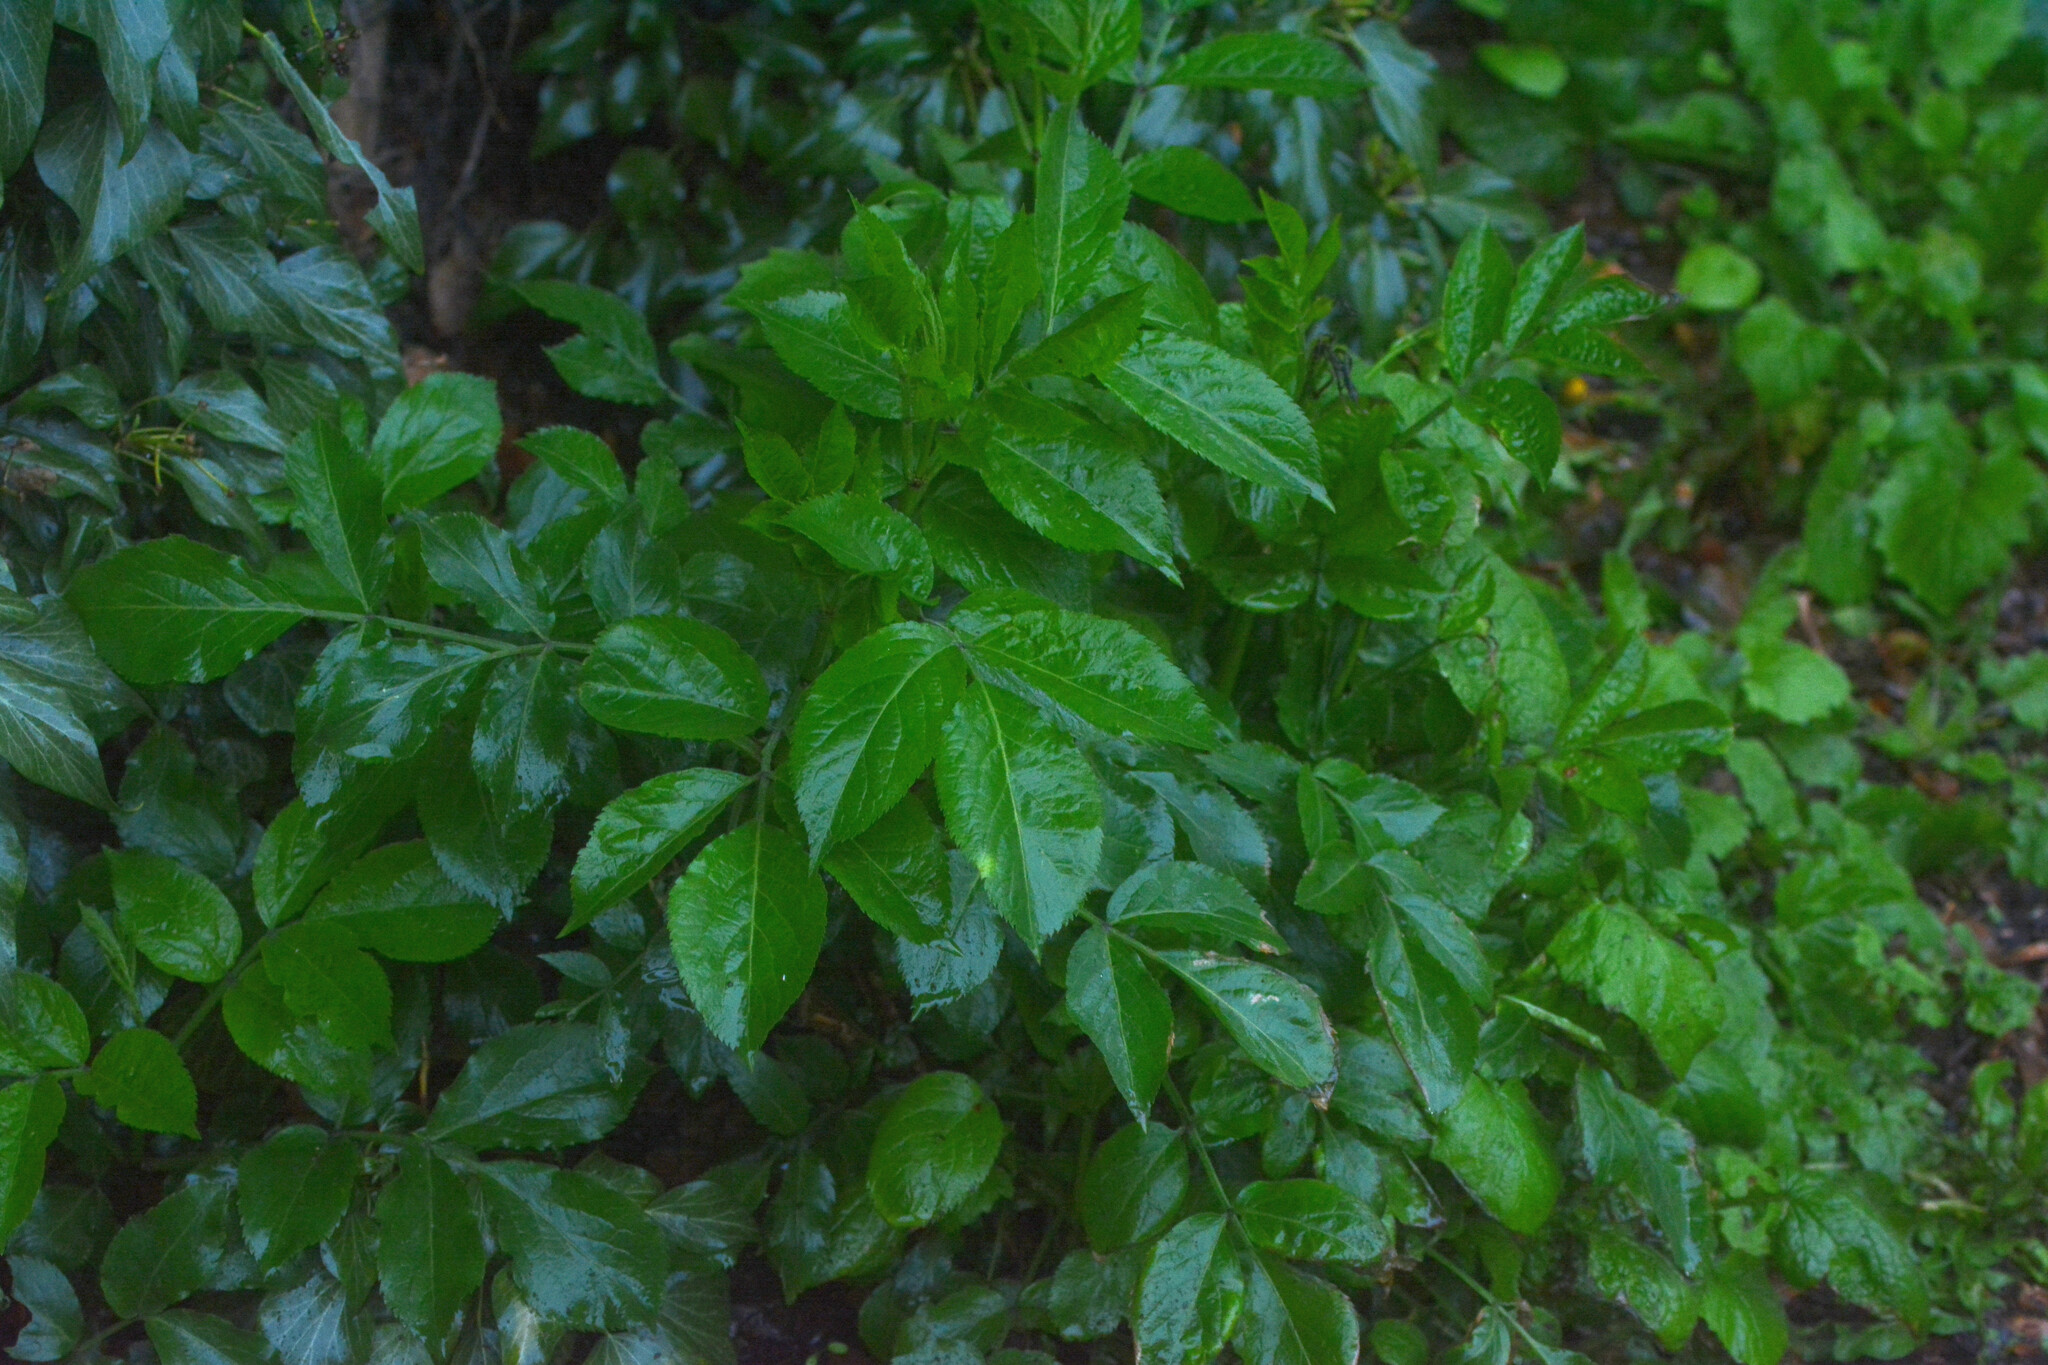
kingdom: Plantae
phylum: Tracheophyta
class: Magnoliopsida
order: Dipsacales
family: Viburnaceae
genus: Sambucus
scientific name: Sambucus nigra
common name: Elder
